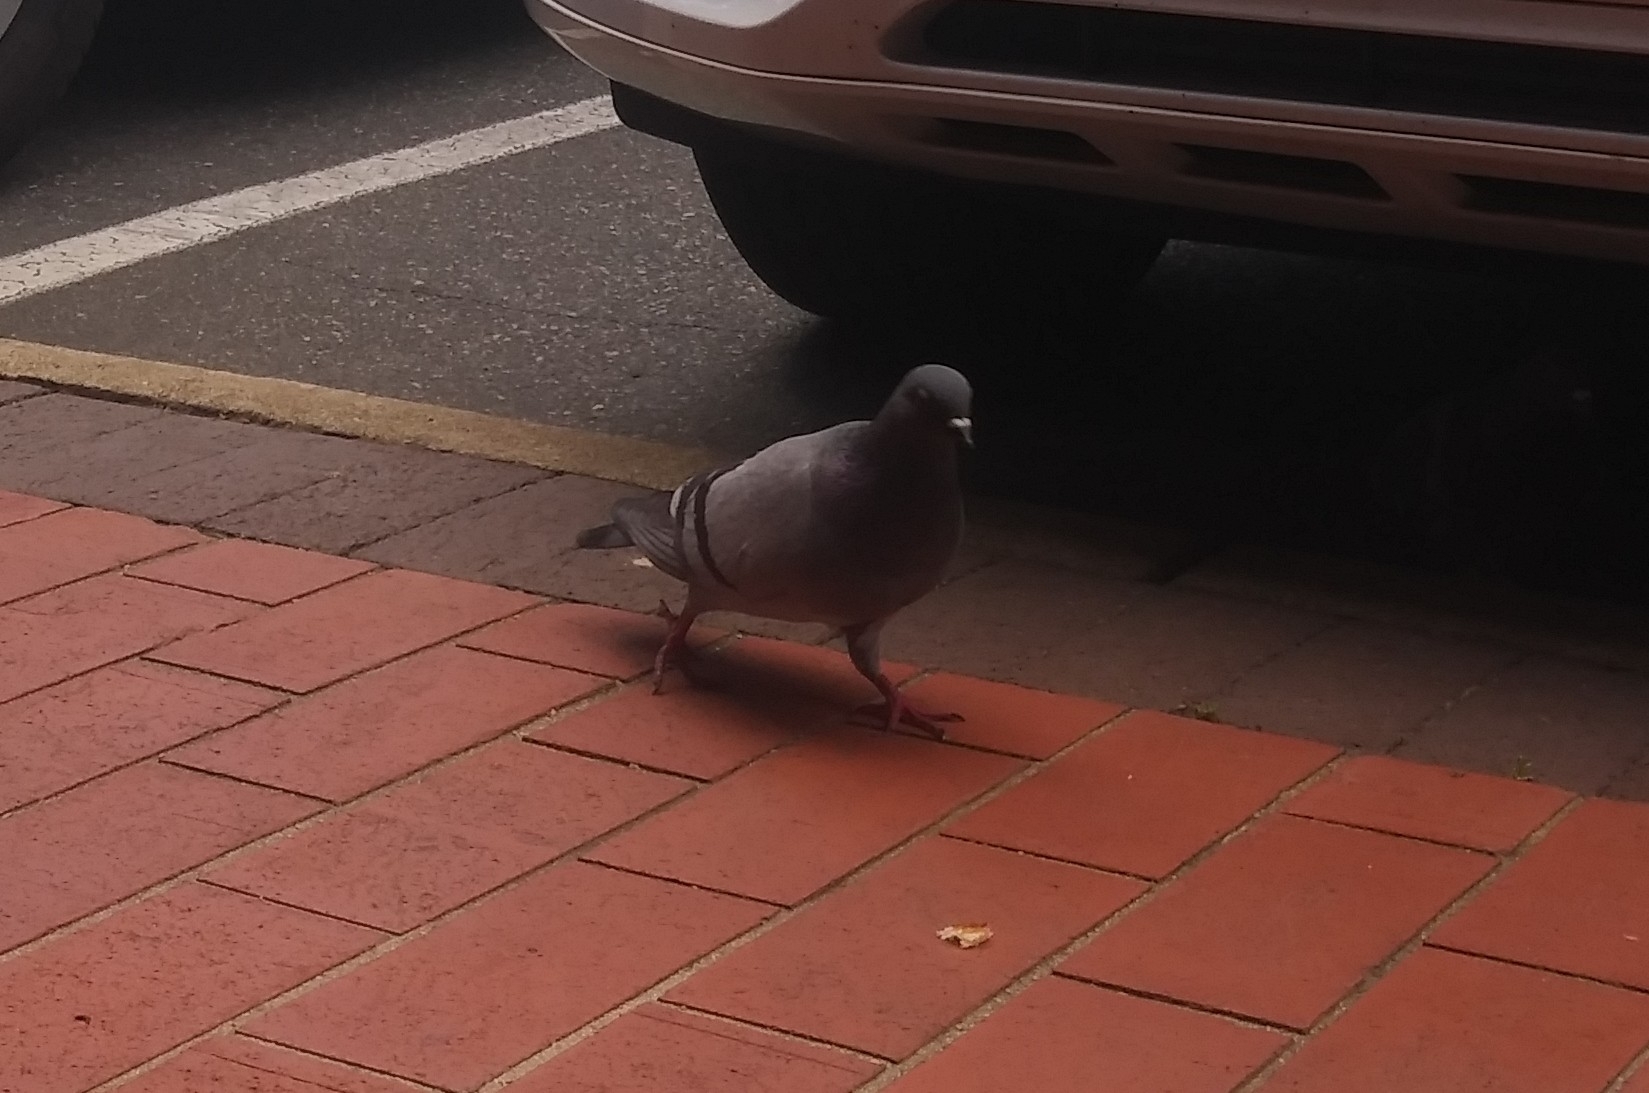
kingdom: Animalia
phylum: Chordata
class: Aves
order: Columbiformes
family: Columbidae
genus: Columba
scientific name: Columba livia
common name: Rock pigeon
